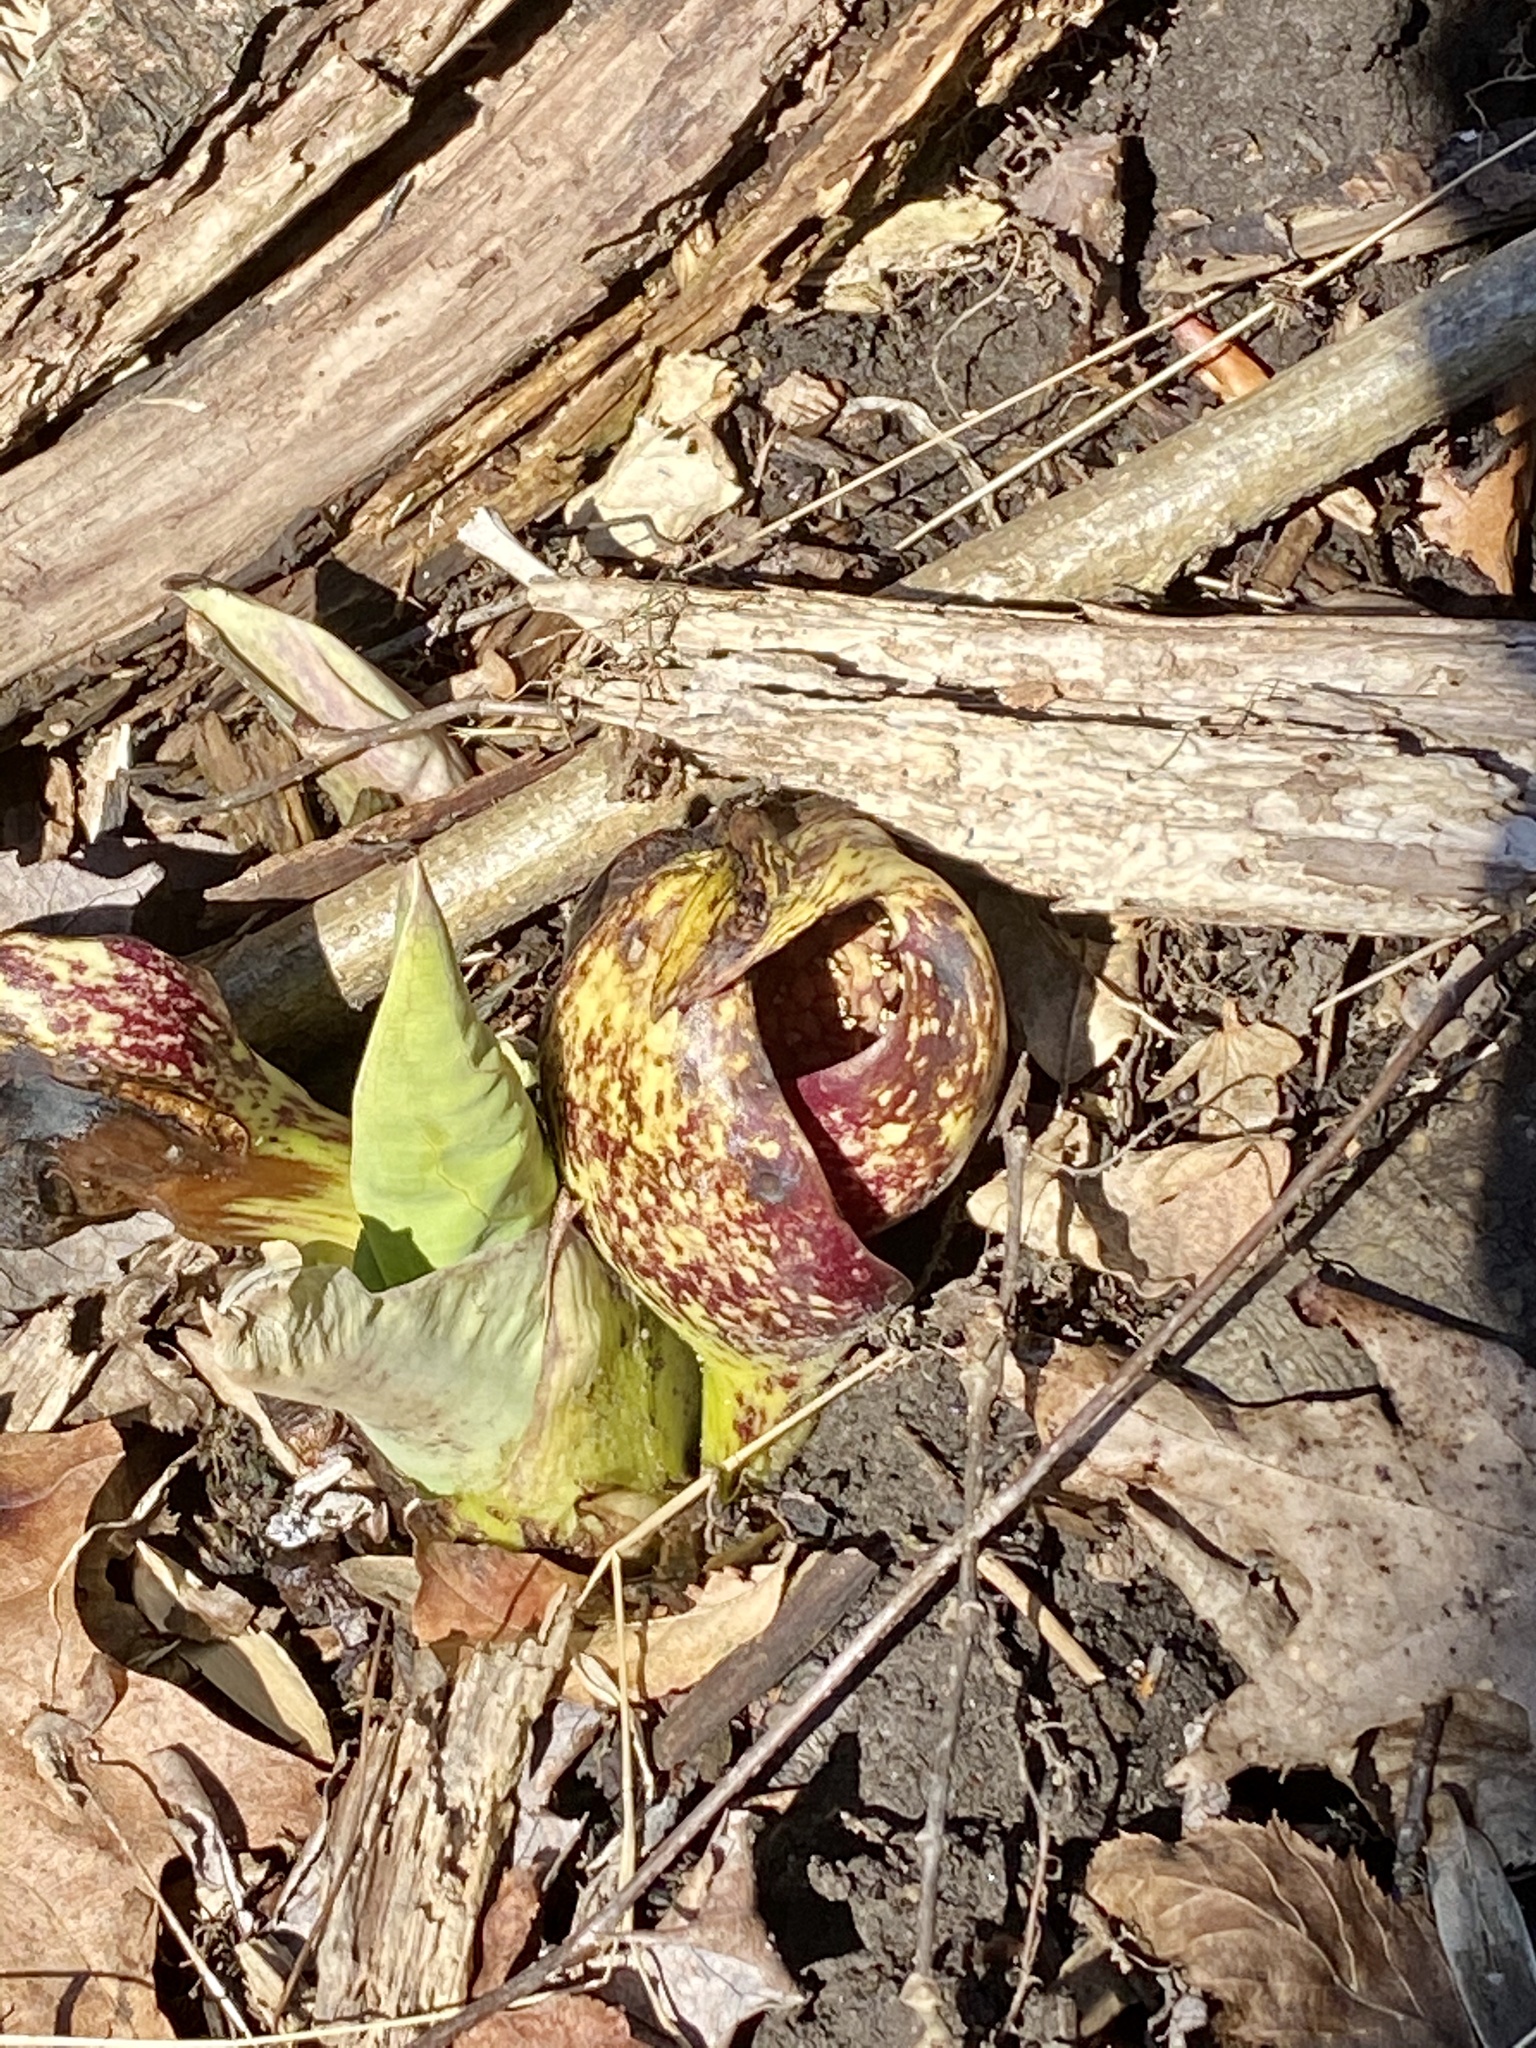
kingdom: Plantae
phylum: Tracheophyta
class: Liliopsida
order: Alismatales
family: Araceae
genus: Symplocarpus
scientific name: Symplocarpus foetidus
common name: Eastern skunk cabbage
